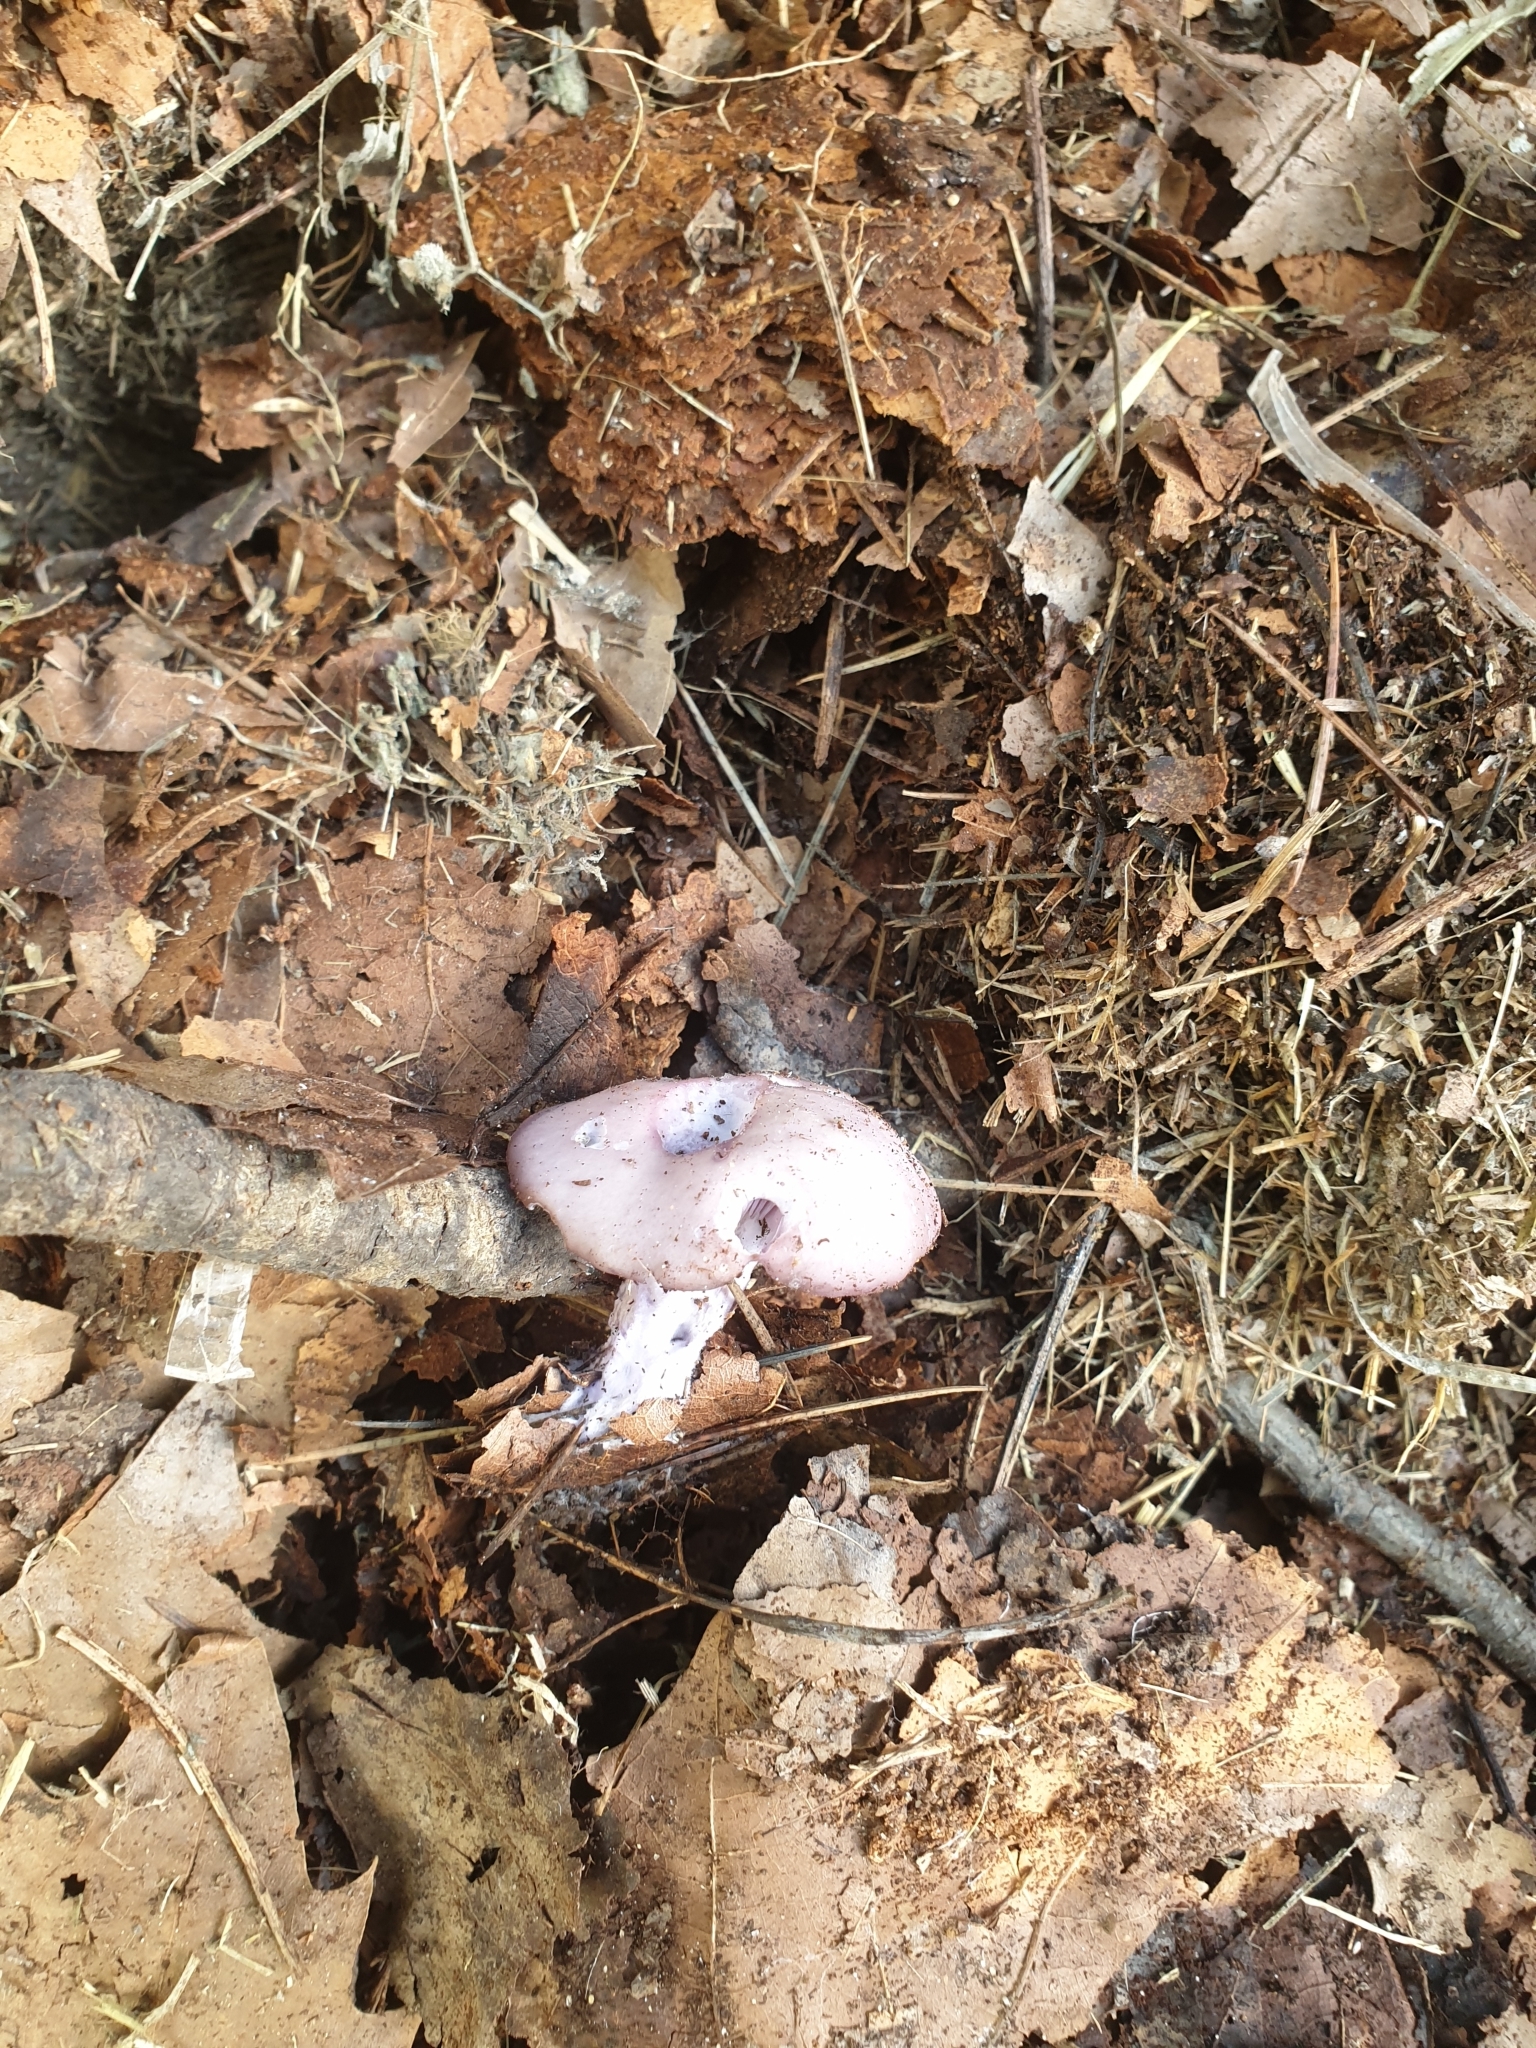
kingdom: Fungi
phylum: Basidiomycota
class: Agaricomycetes
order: Agaricales
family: Tricholomataceae
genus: Collybia
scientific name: Collybia
